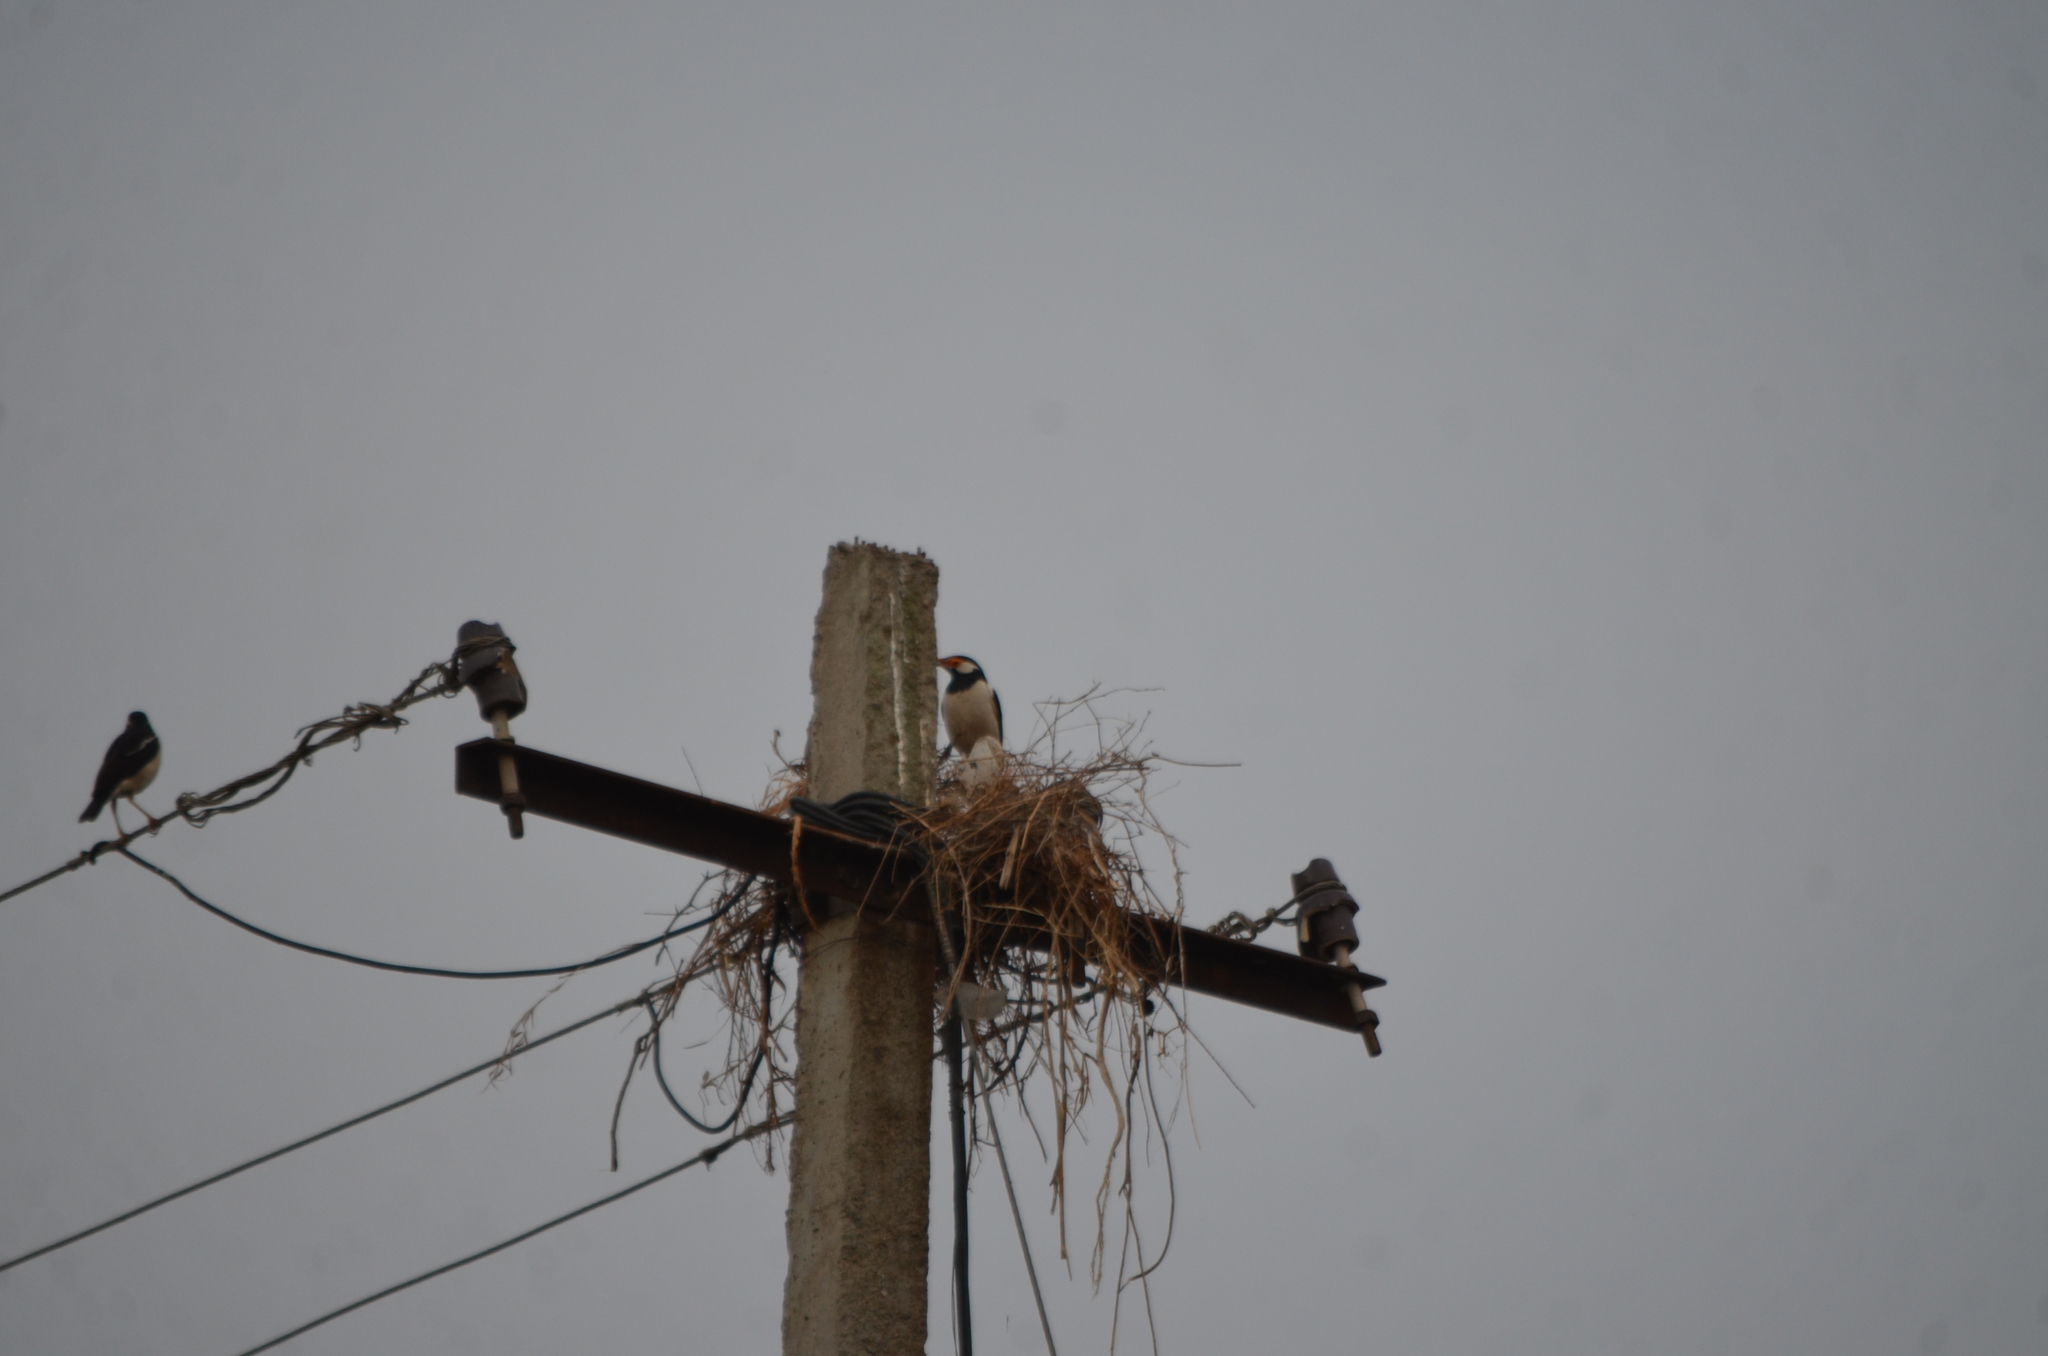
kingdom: Animalia
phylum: Chordata
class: Aves
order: Passeriformes
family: Sturnidae
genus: Gracupica
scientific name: Gracupica contra
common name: Pied myna
